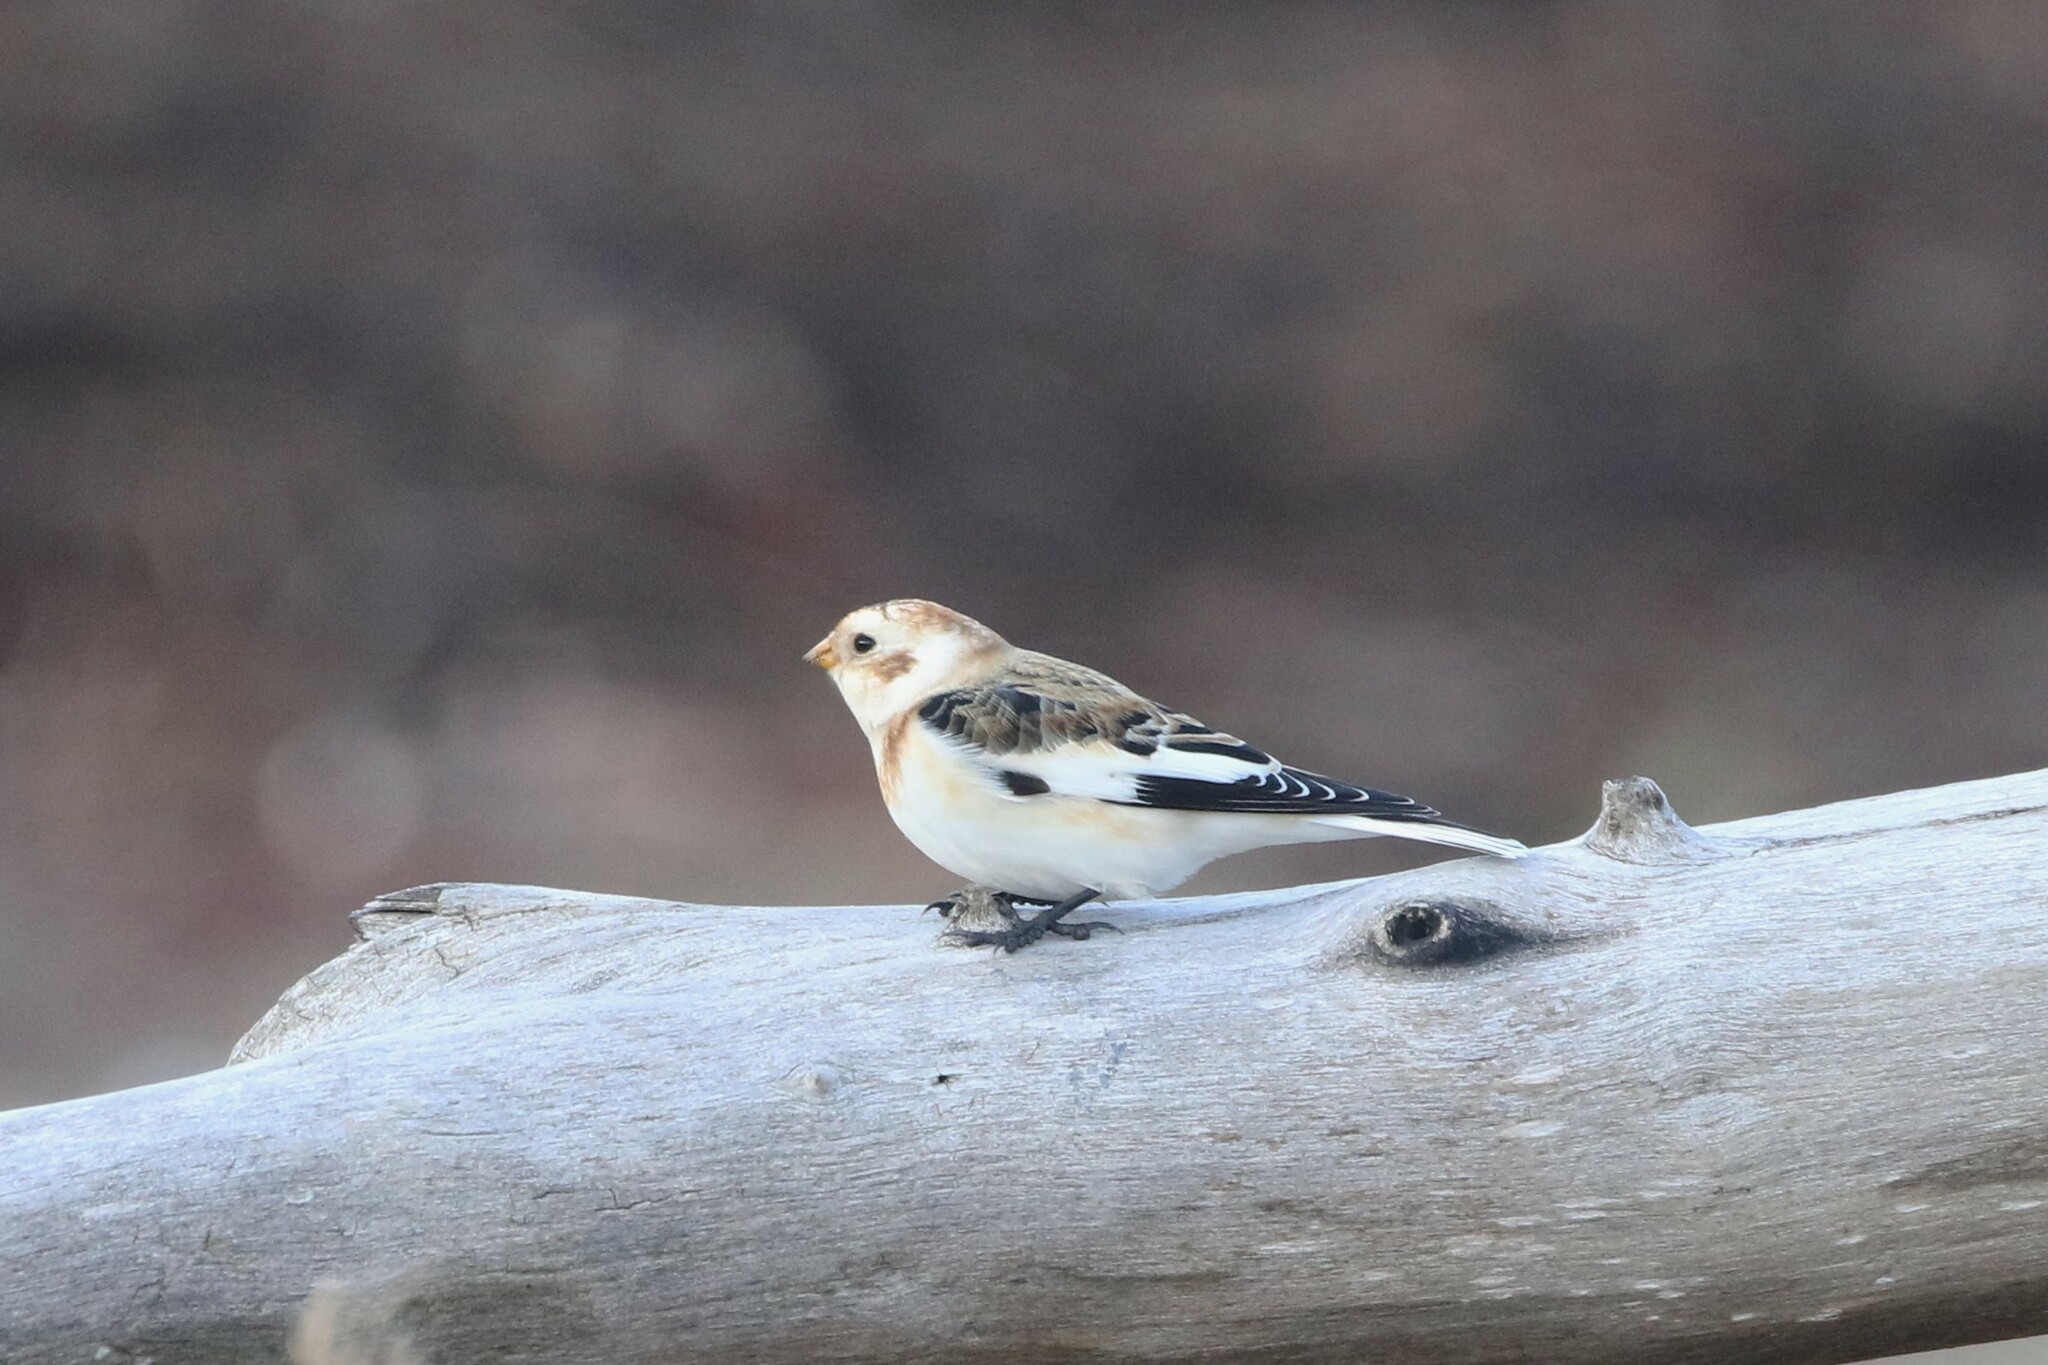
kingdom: Animalia
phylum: Chordata
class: Aves
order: Passeriformes
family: Calcariidae
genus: Plectrophenax
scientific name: Plectrophenax nivalis
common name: Snow bunting
